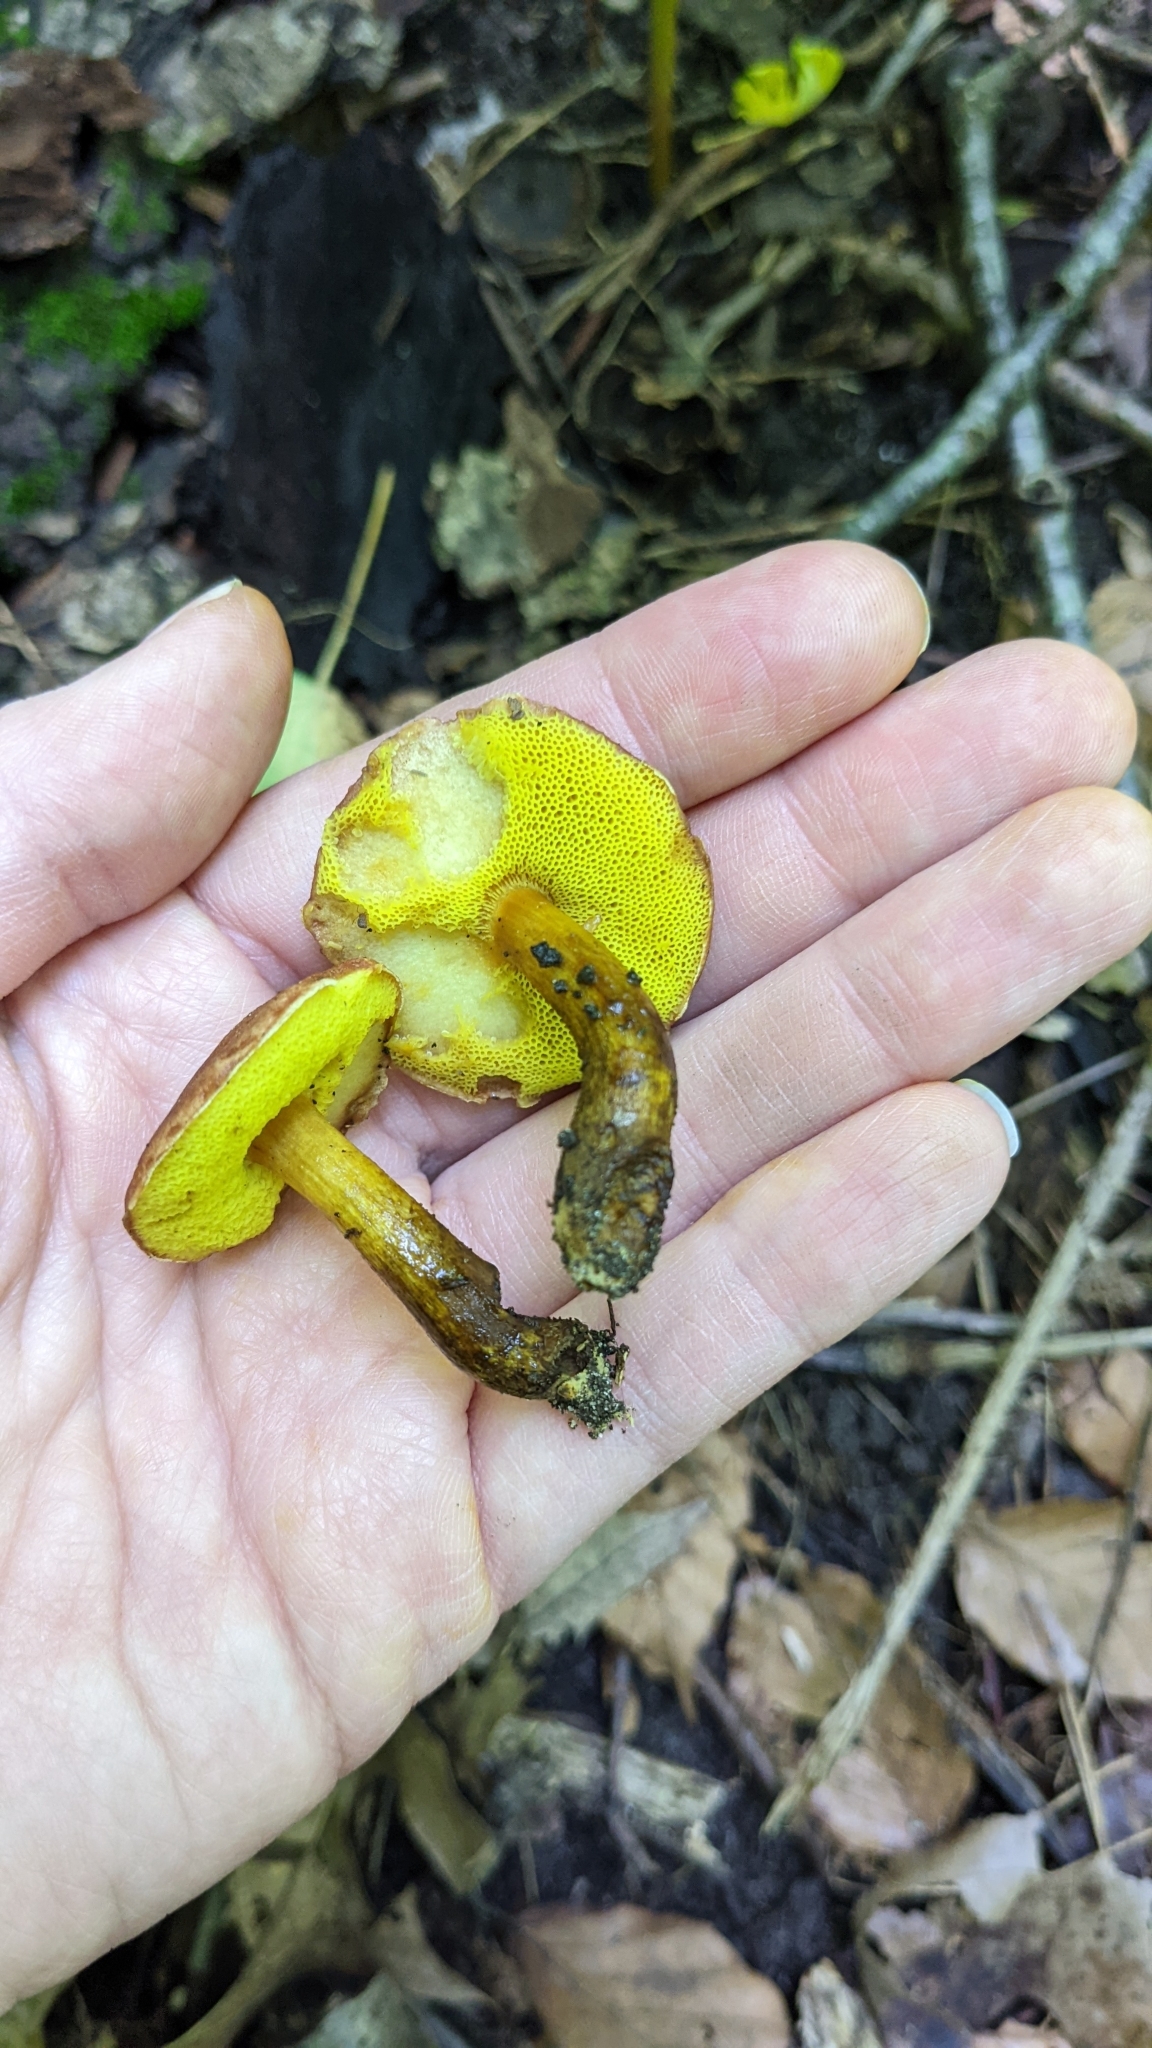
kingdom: Fungi
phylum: Basidiomycota
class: Agaricomycetes
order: Boletales
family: Boletaceae
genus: Aureoboletus
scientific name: Aureoboletus auriporus
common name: Sour gold-pored bolete
